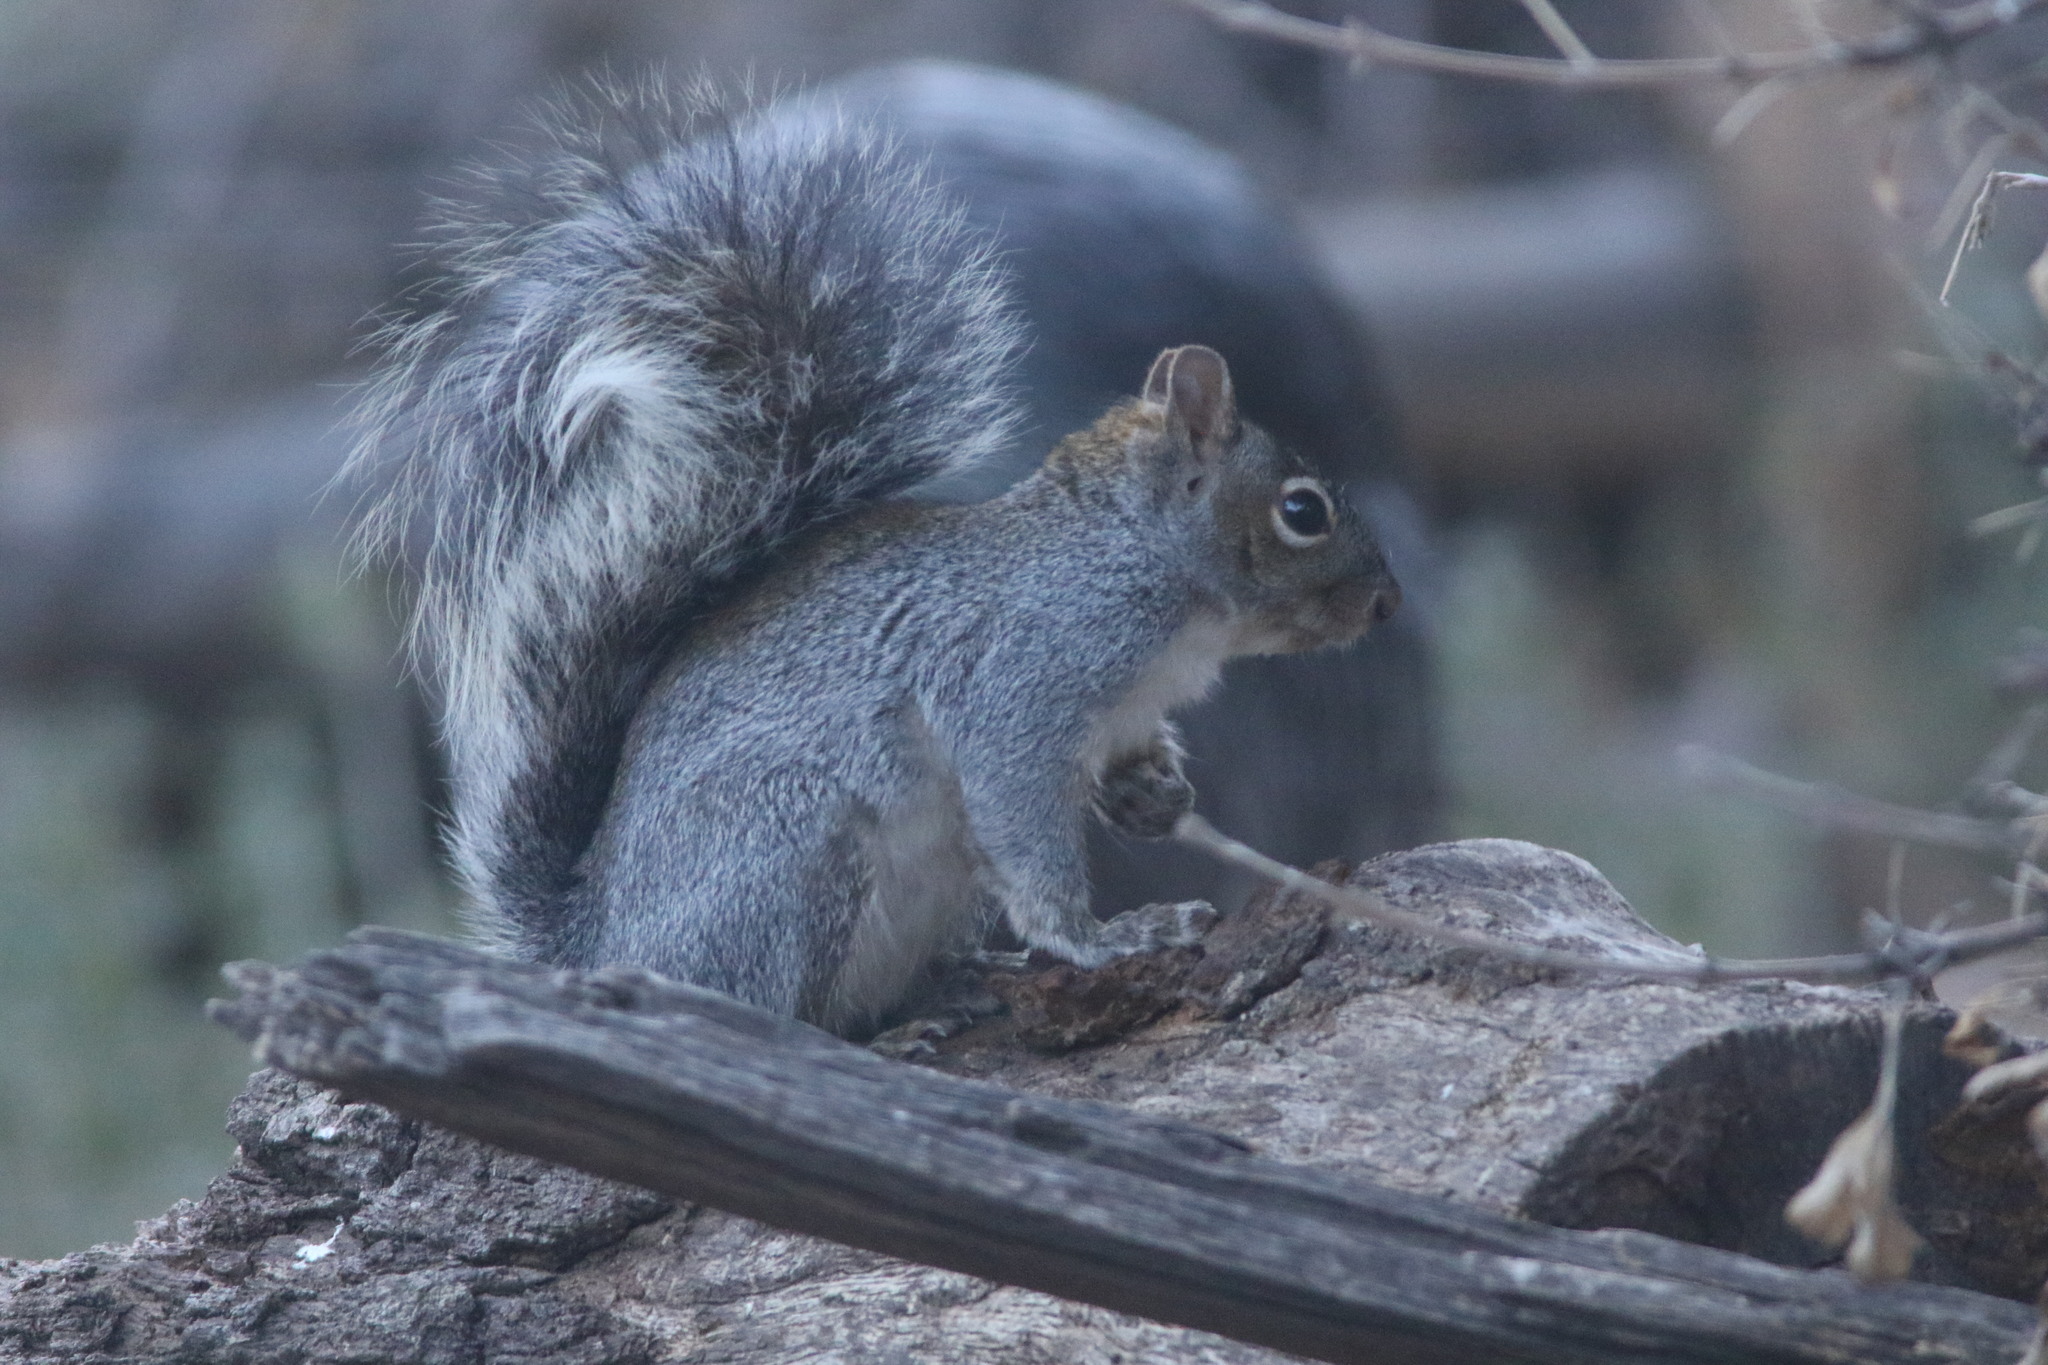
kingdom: Animalia
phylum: Chordata
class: Mammalia
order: Rodentia
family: Sciuridae
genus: Sciurus
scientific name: Sciurus arizonensis
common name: Arizona gray squirrel
